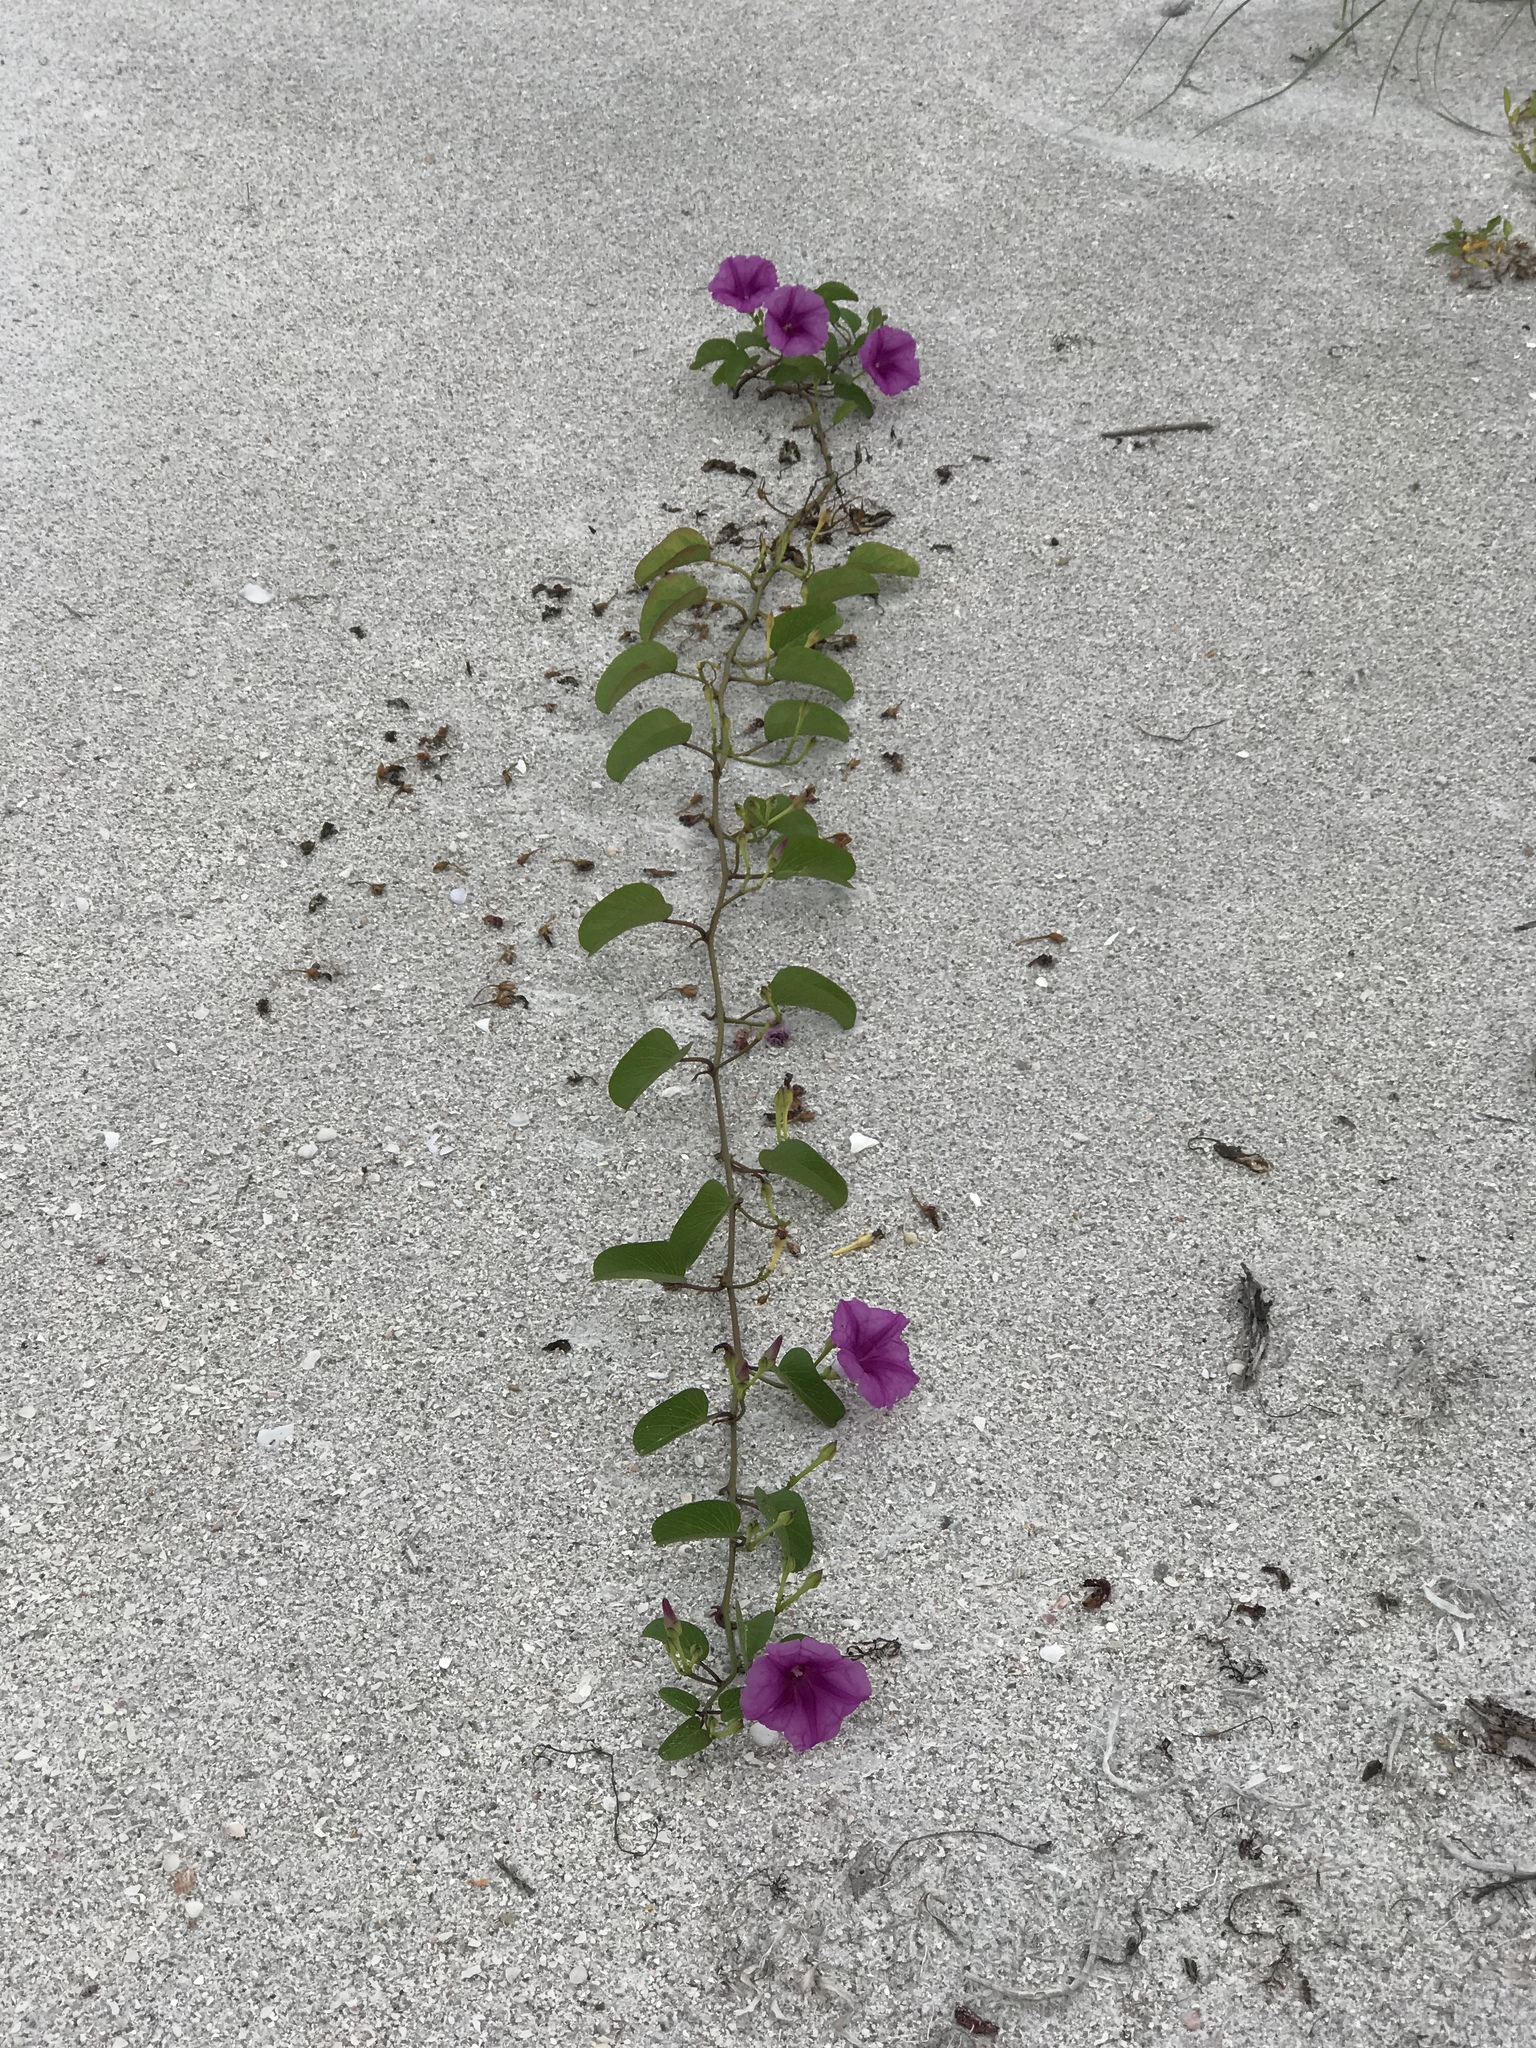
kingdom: Plantae
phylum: Tracheophyta
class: Magnoliopsida
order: Solanales
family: Convolvulaceae
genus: Ipomoea
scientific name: Ipomoea pes-caprae
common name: Beach morning glory
